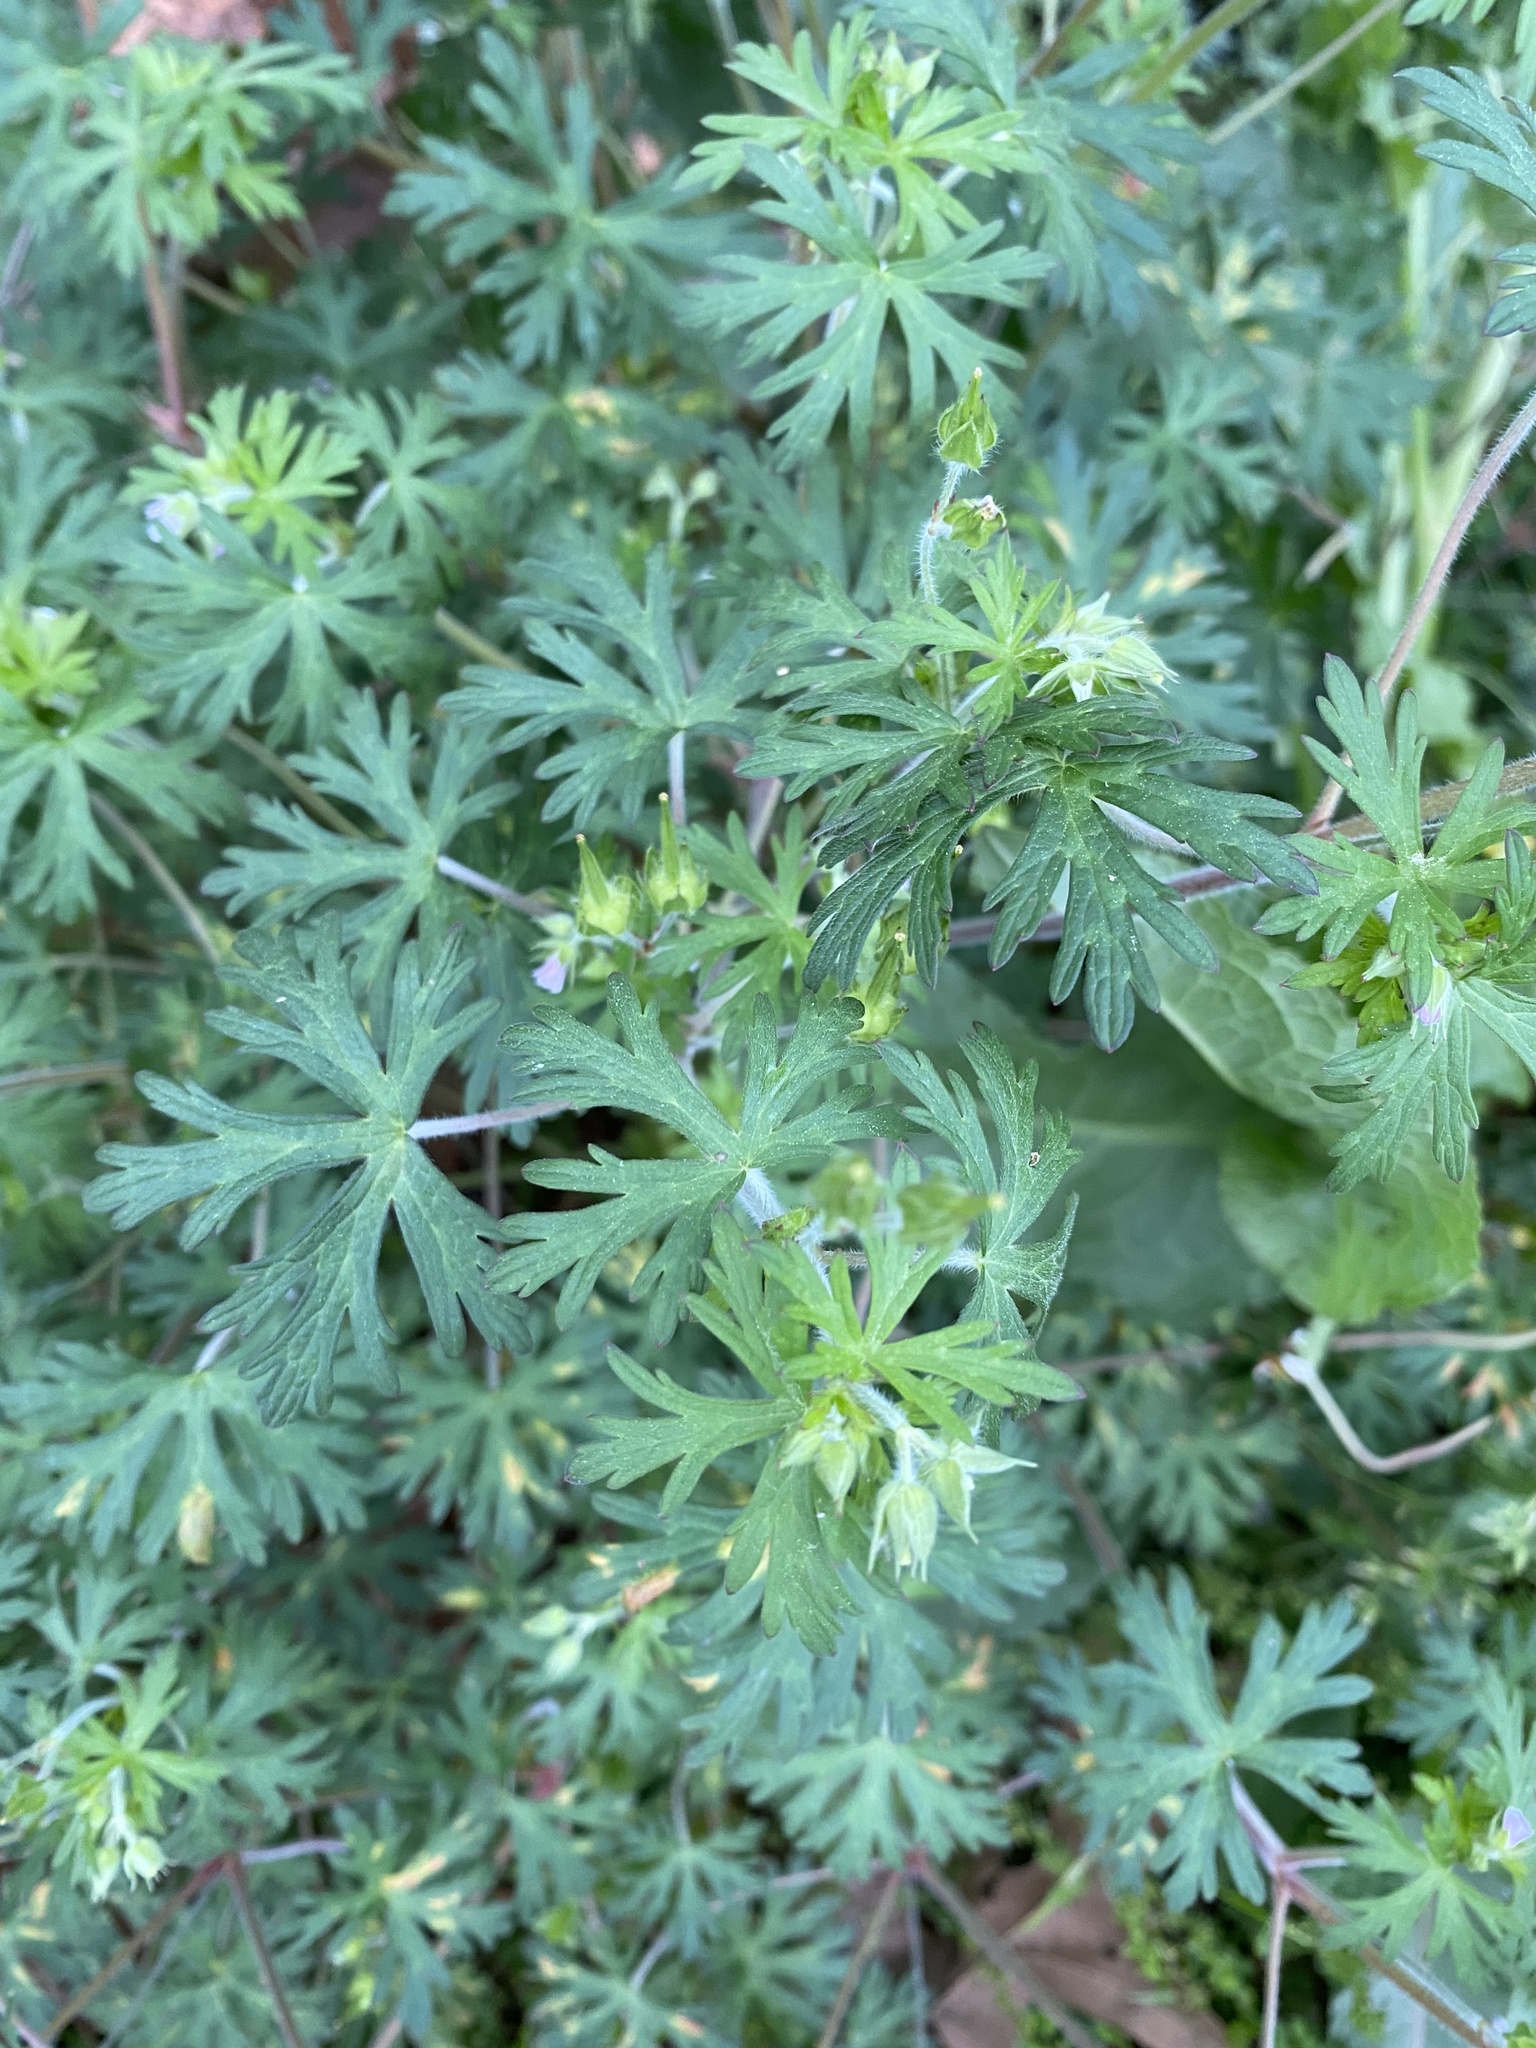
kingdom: Plantae
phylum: Tracheophyta
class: Magnoliopsida
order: Geraniales
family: Geraniaceae
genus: Geranium
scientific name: Geranium carolinianum
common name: Carolina crane's-bill
